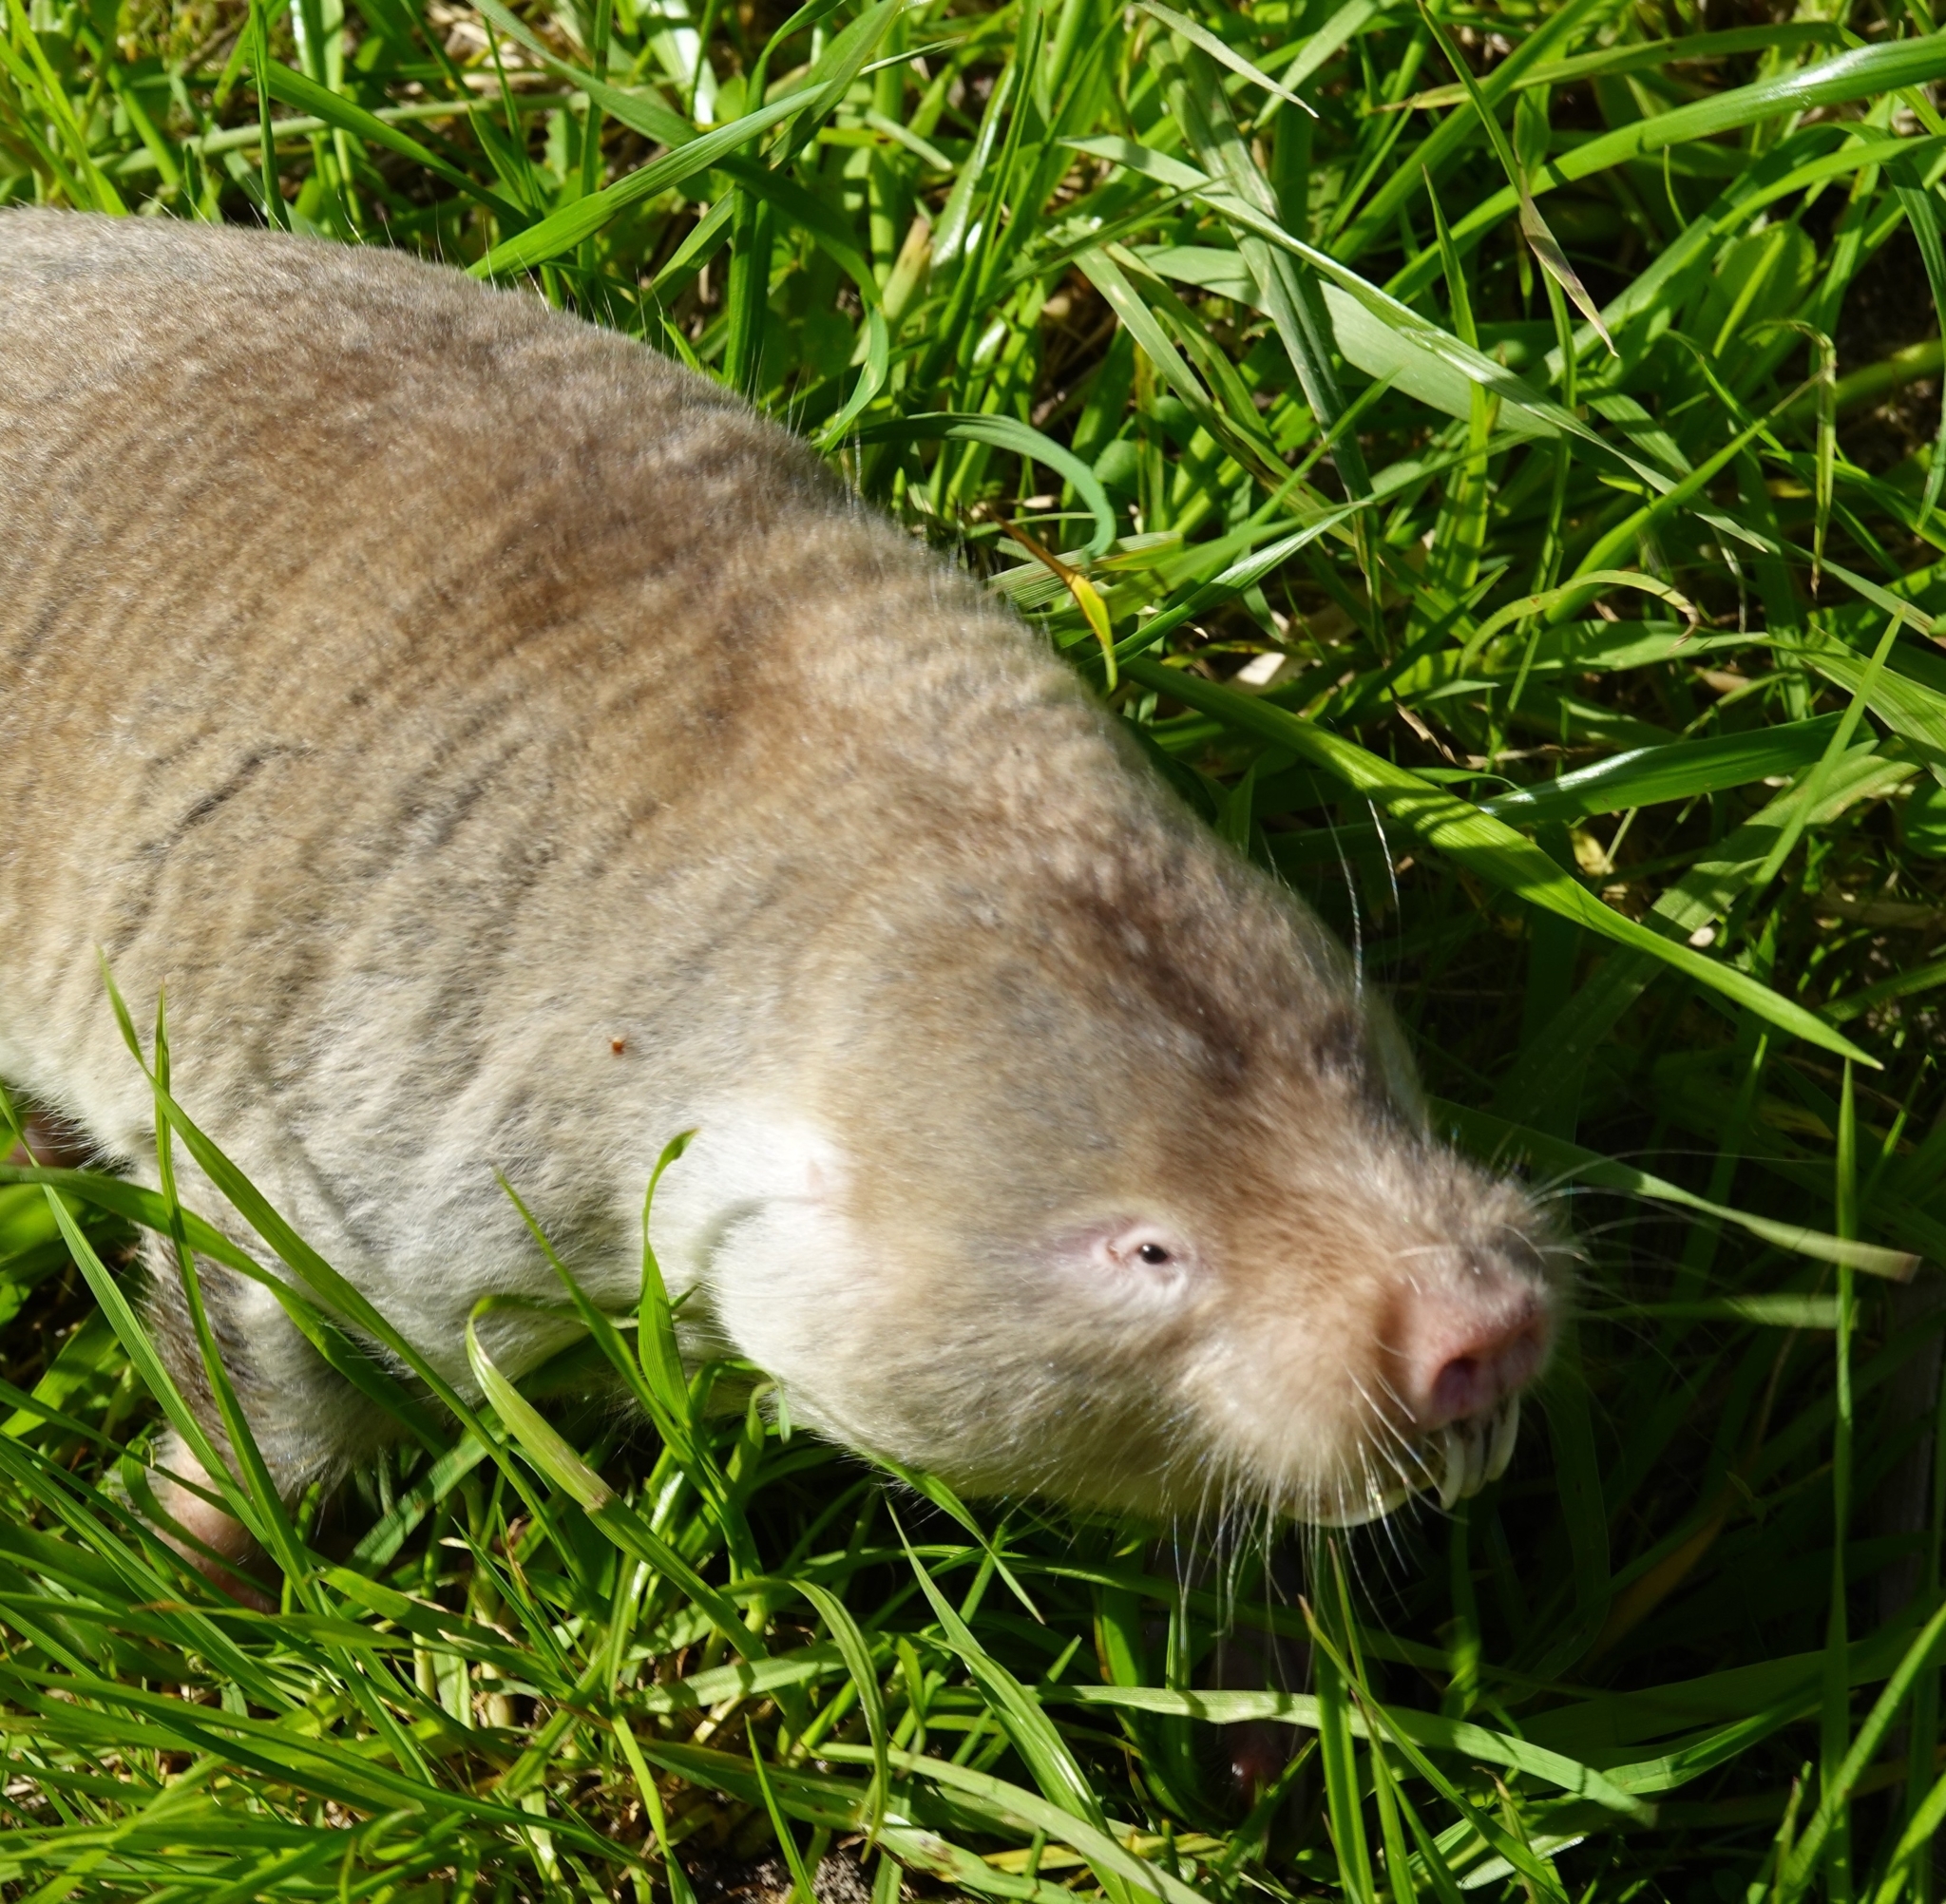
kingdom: Animalia
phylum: Chordata
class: Mammalia
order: Rodentia
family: Bathyergidae
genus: Bathyergus
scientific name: Bathyergus suillus
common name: Cape dune mole rat
